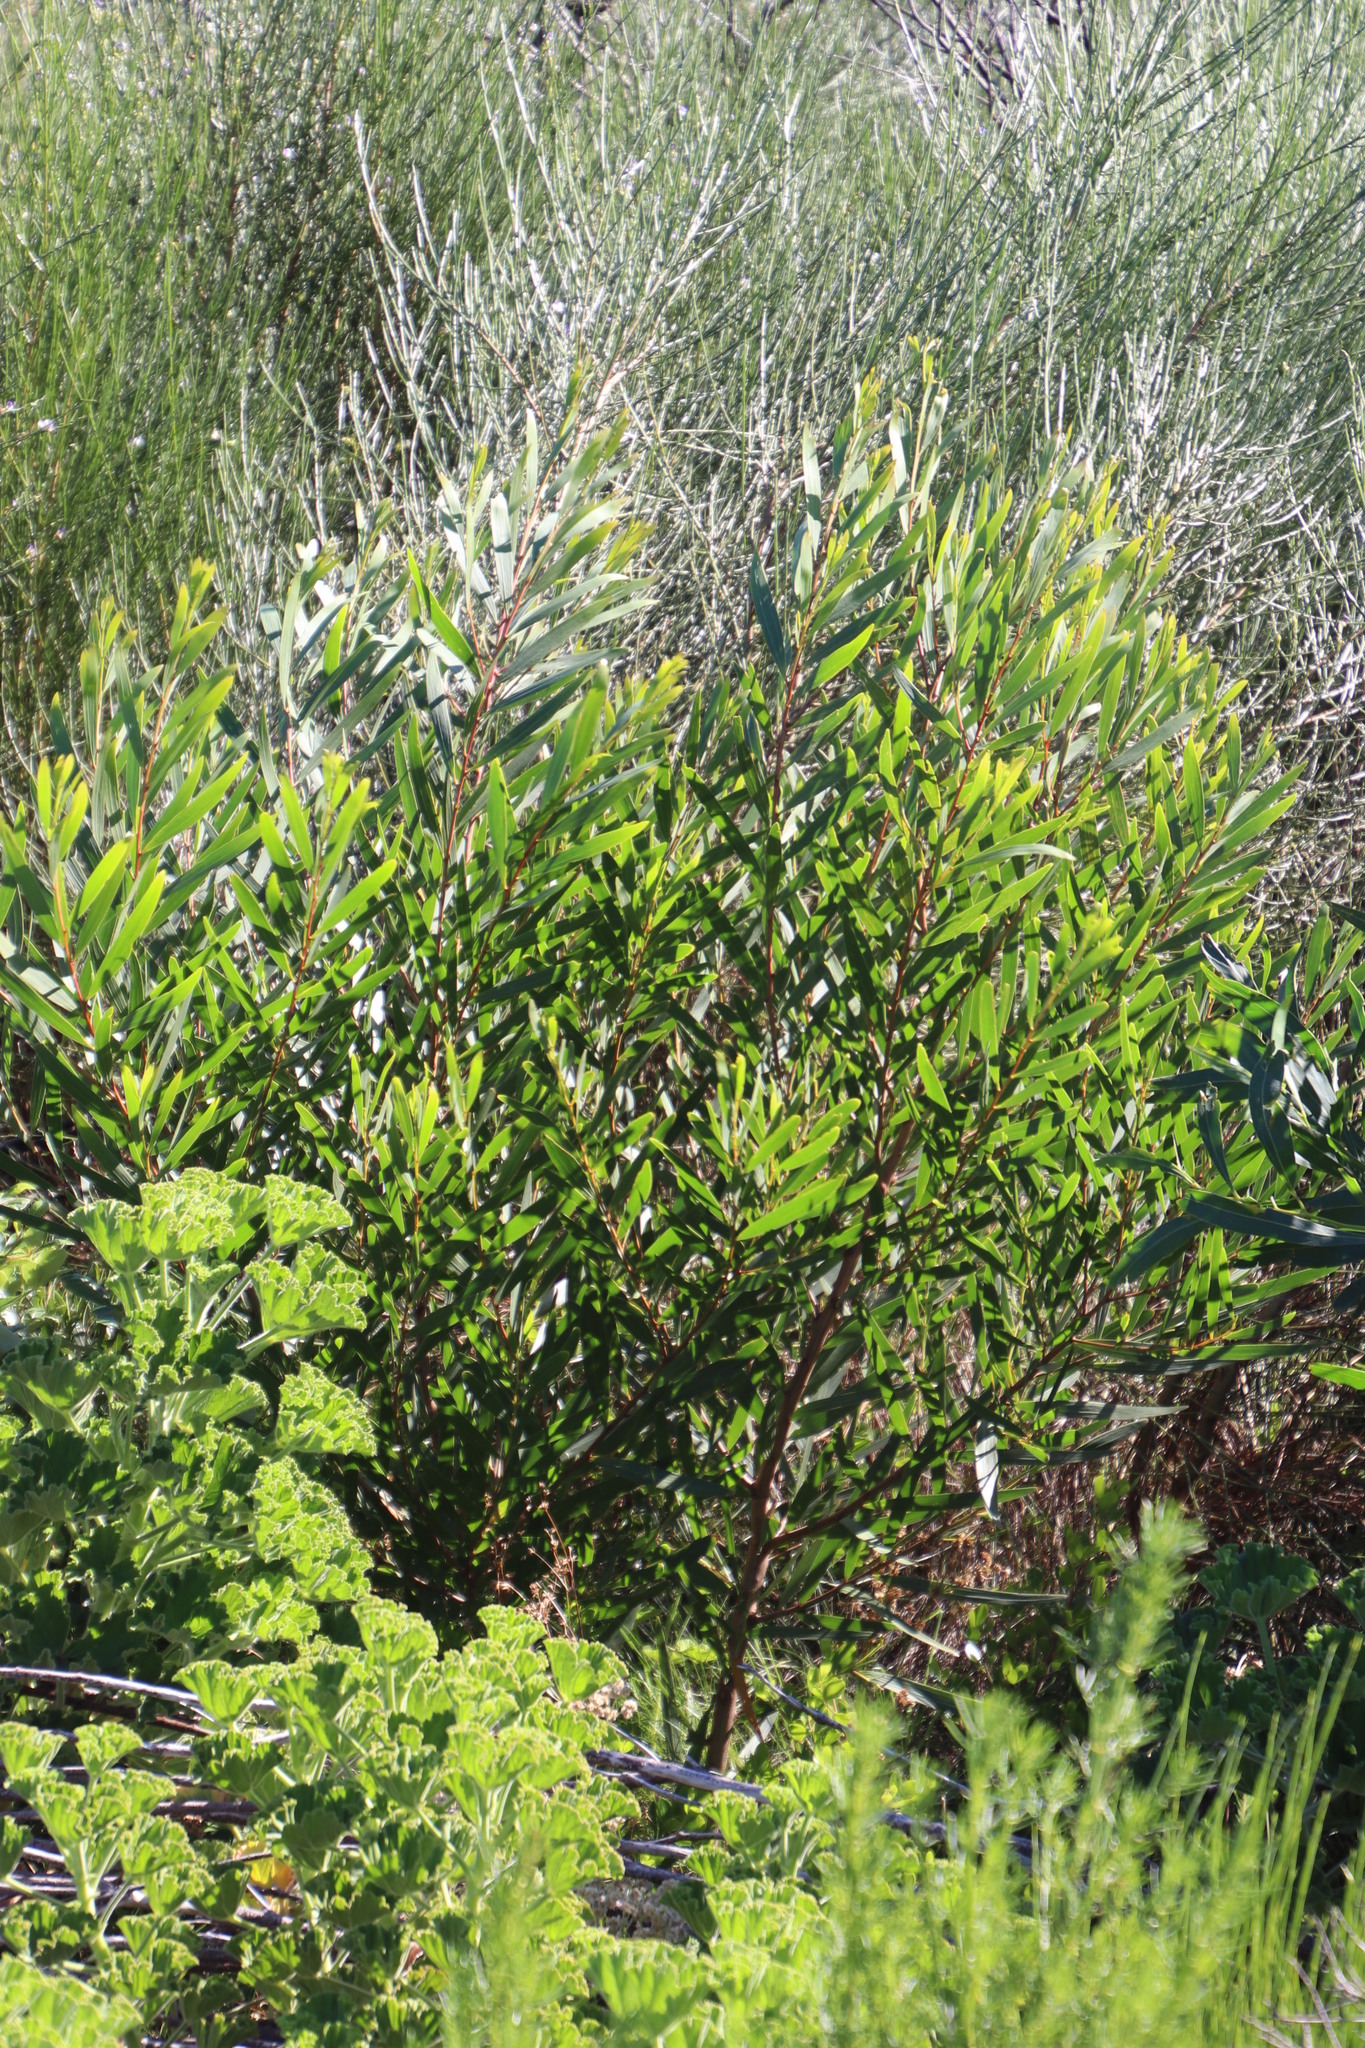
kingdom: Plantae
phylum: Tracheophyta
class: Magnoliopsida
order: Fabales
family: Fabaceae
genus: Acacia
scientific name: Acacia longifolia
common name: Sydney golden wattle
